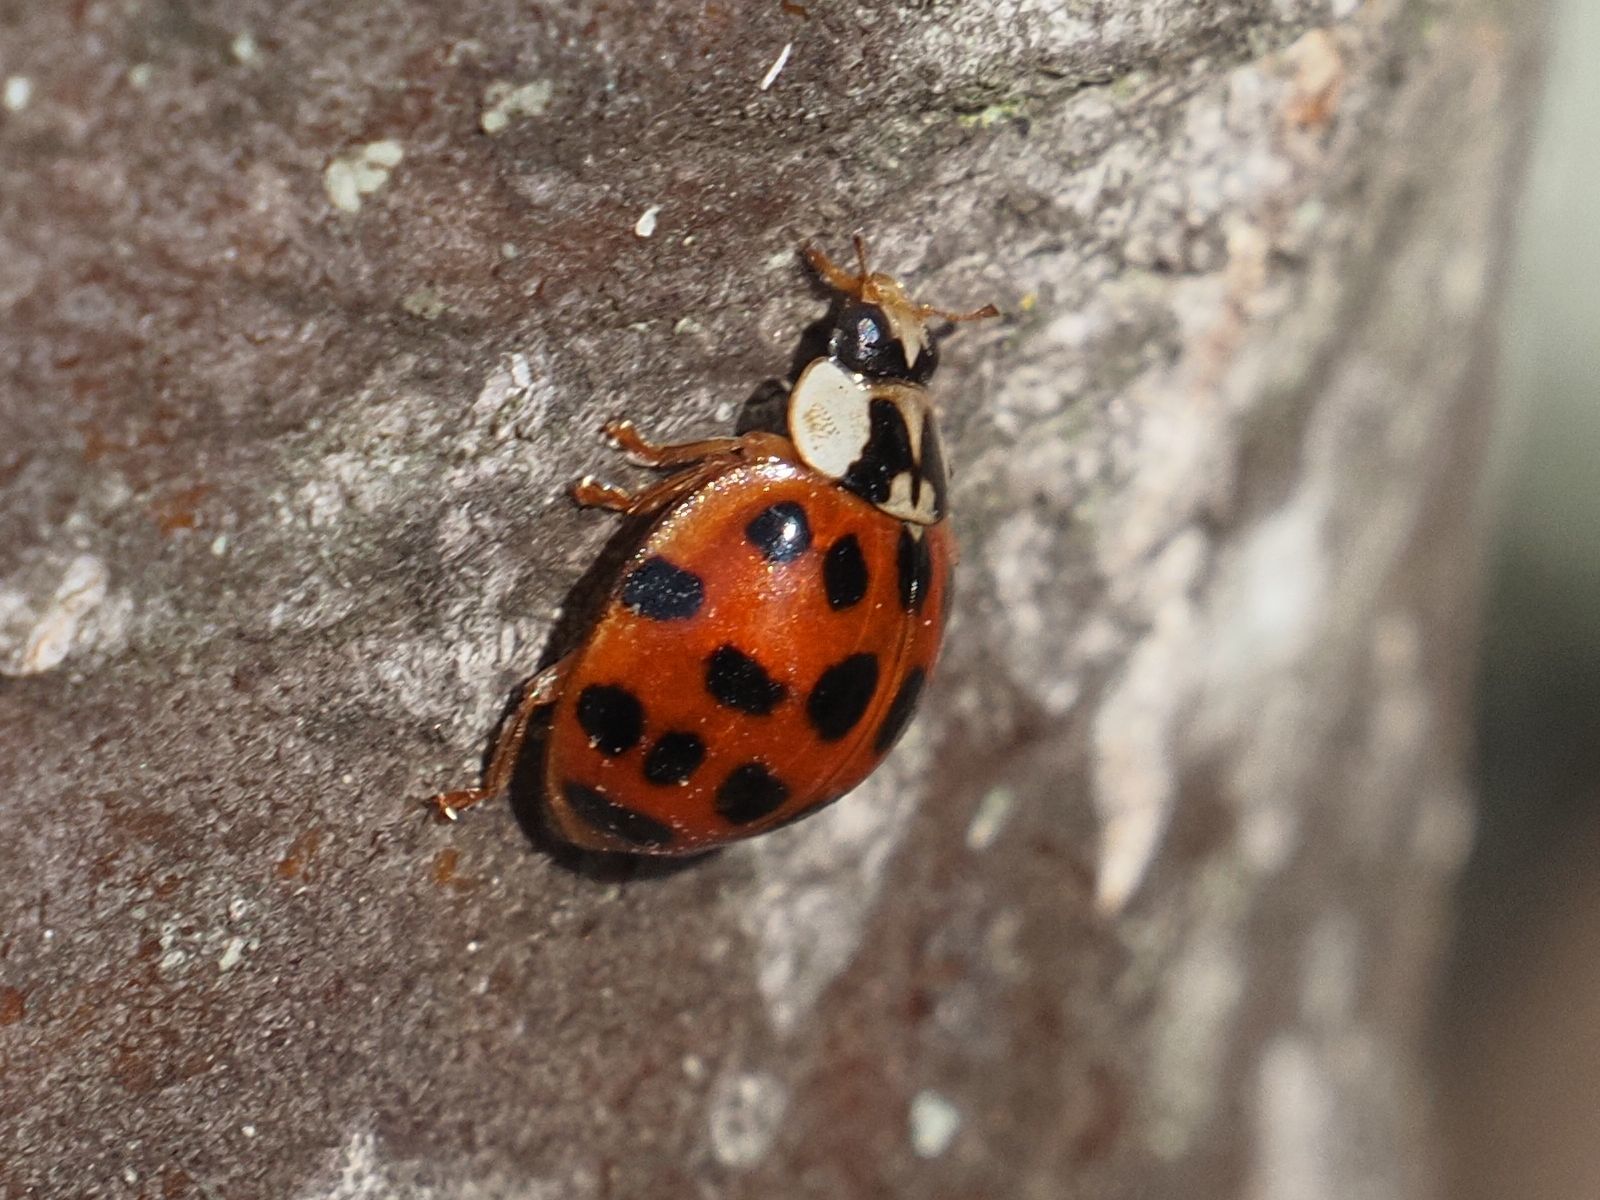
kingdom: Animalia
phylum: Arthropoda
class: Insecta
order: Coleoptera
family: Coccinellidae
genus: Harmonia
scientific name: Harmonia axyridis
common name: Harlequin ladybird
